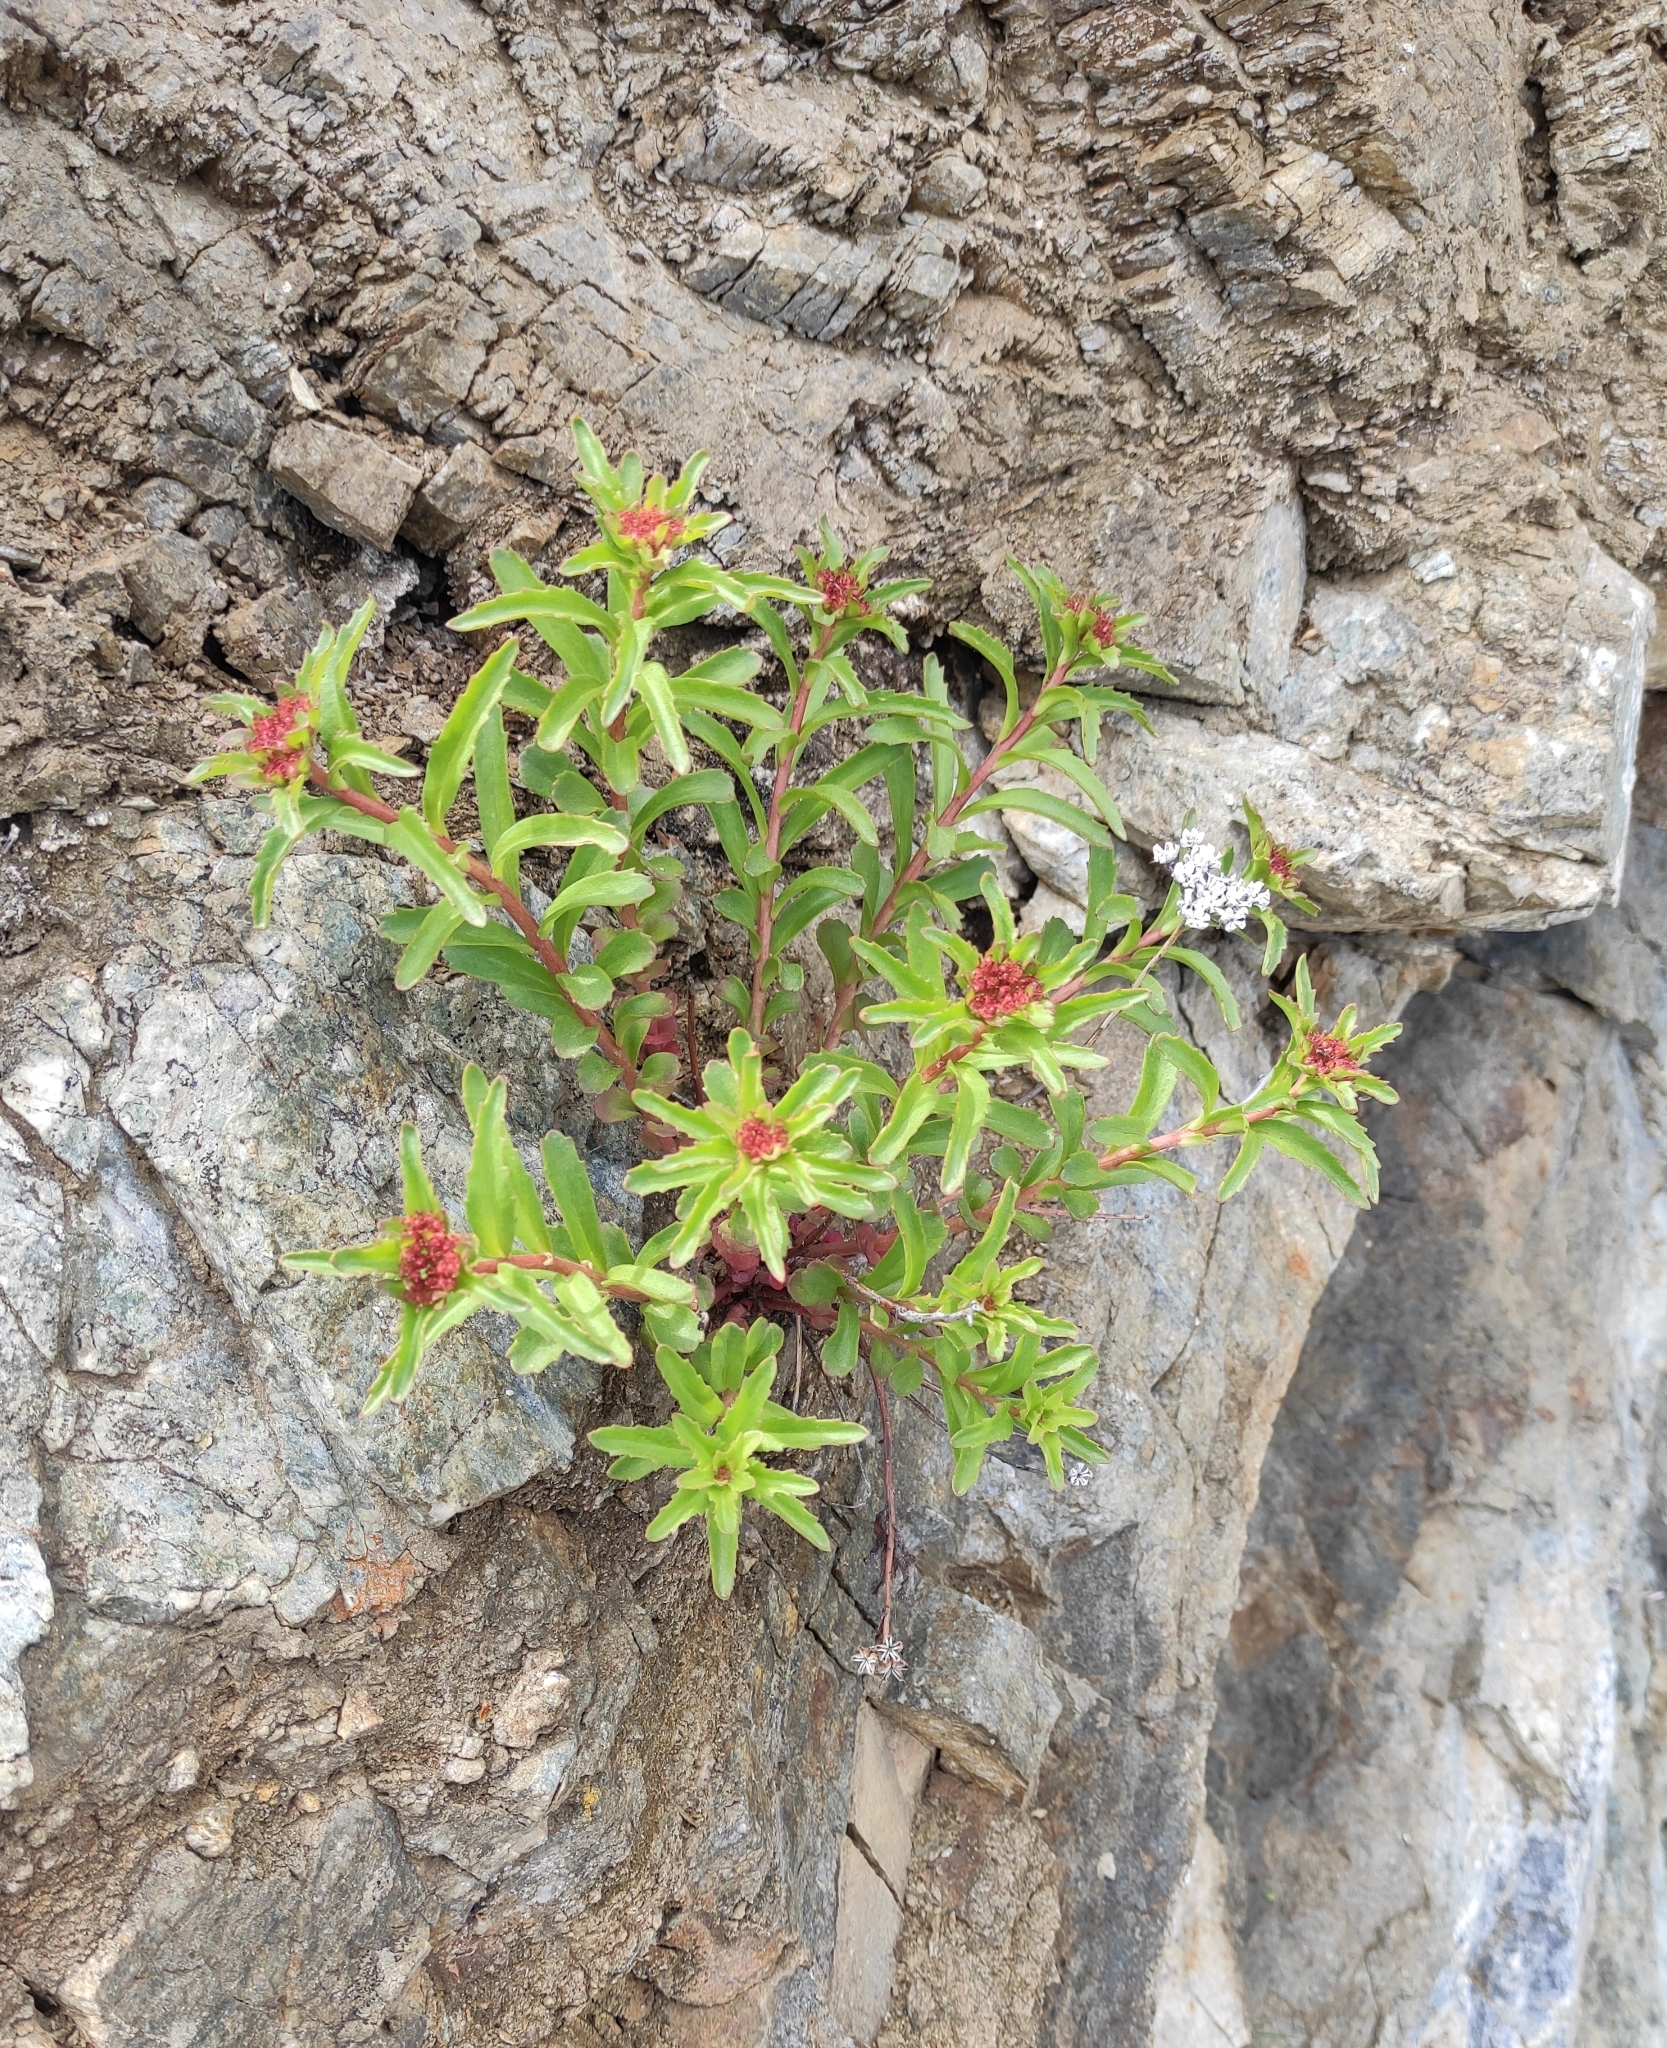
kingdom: Plantae
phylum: Tracheophyta
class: Magnoliopsida
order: Saxifragales
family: Crassulaceae
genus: Phedimus
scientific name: Phedimus aizoon
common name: Orpin aizoon
